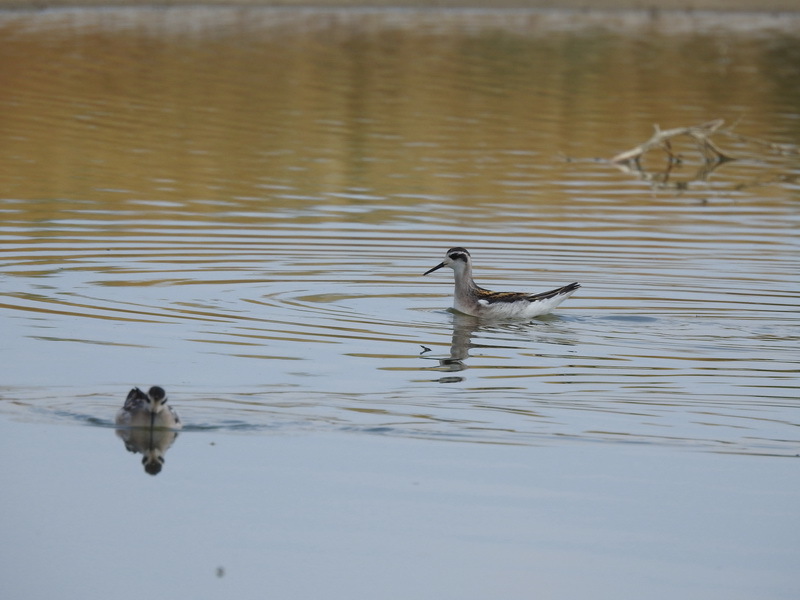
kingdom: Animalia
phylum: Chordata
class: Aves
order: Charadriiformes
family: Scolopacidae
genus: Phalaropus
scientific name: Phalaropus lobatus
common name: Red-necked phalarope
